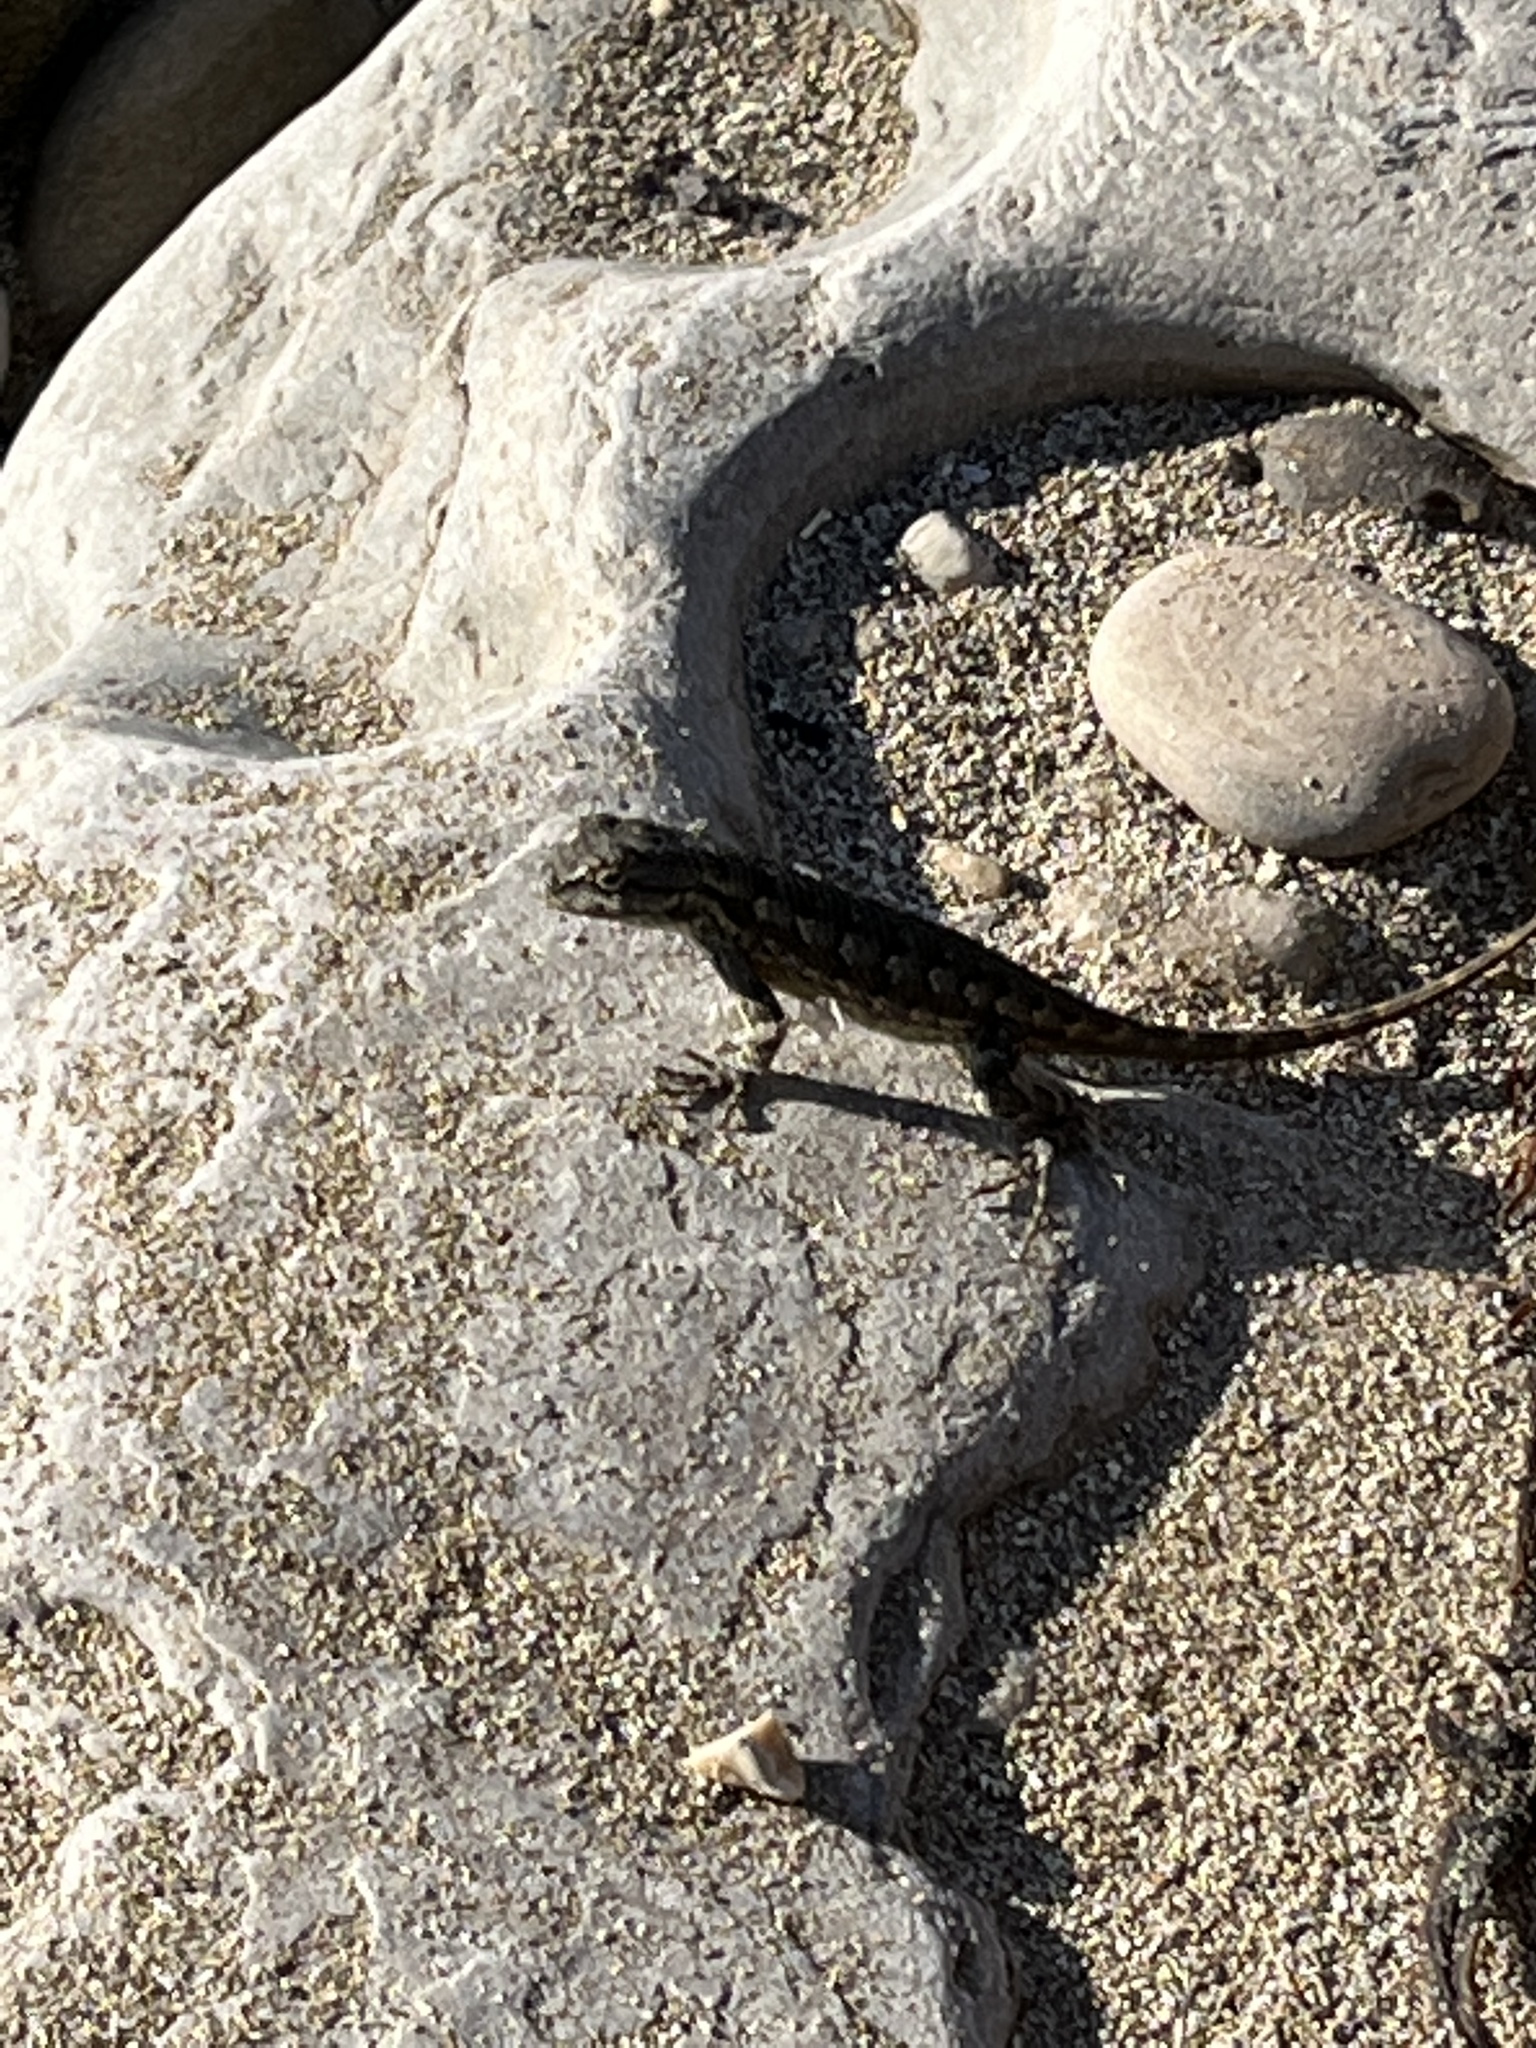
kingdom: Animalia
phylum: Chordata
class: Squamata
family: Phrynosomatidae
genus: Sceloporus
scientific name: Sceloporus occidentalis
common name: Western fence lizard
